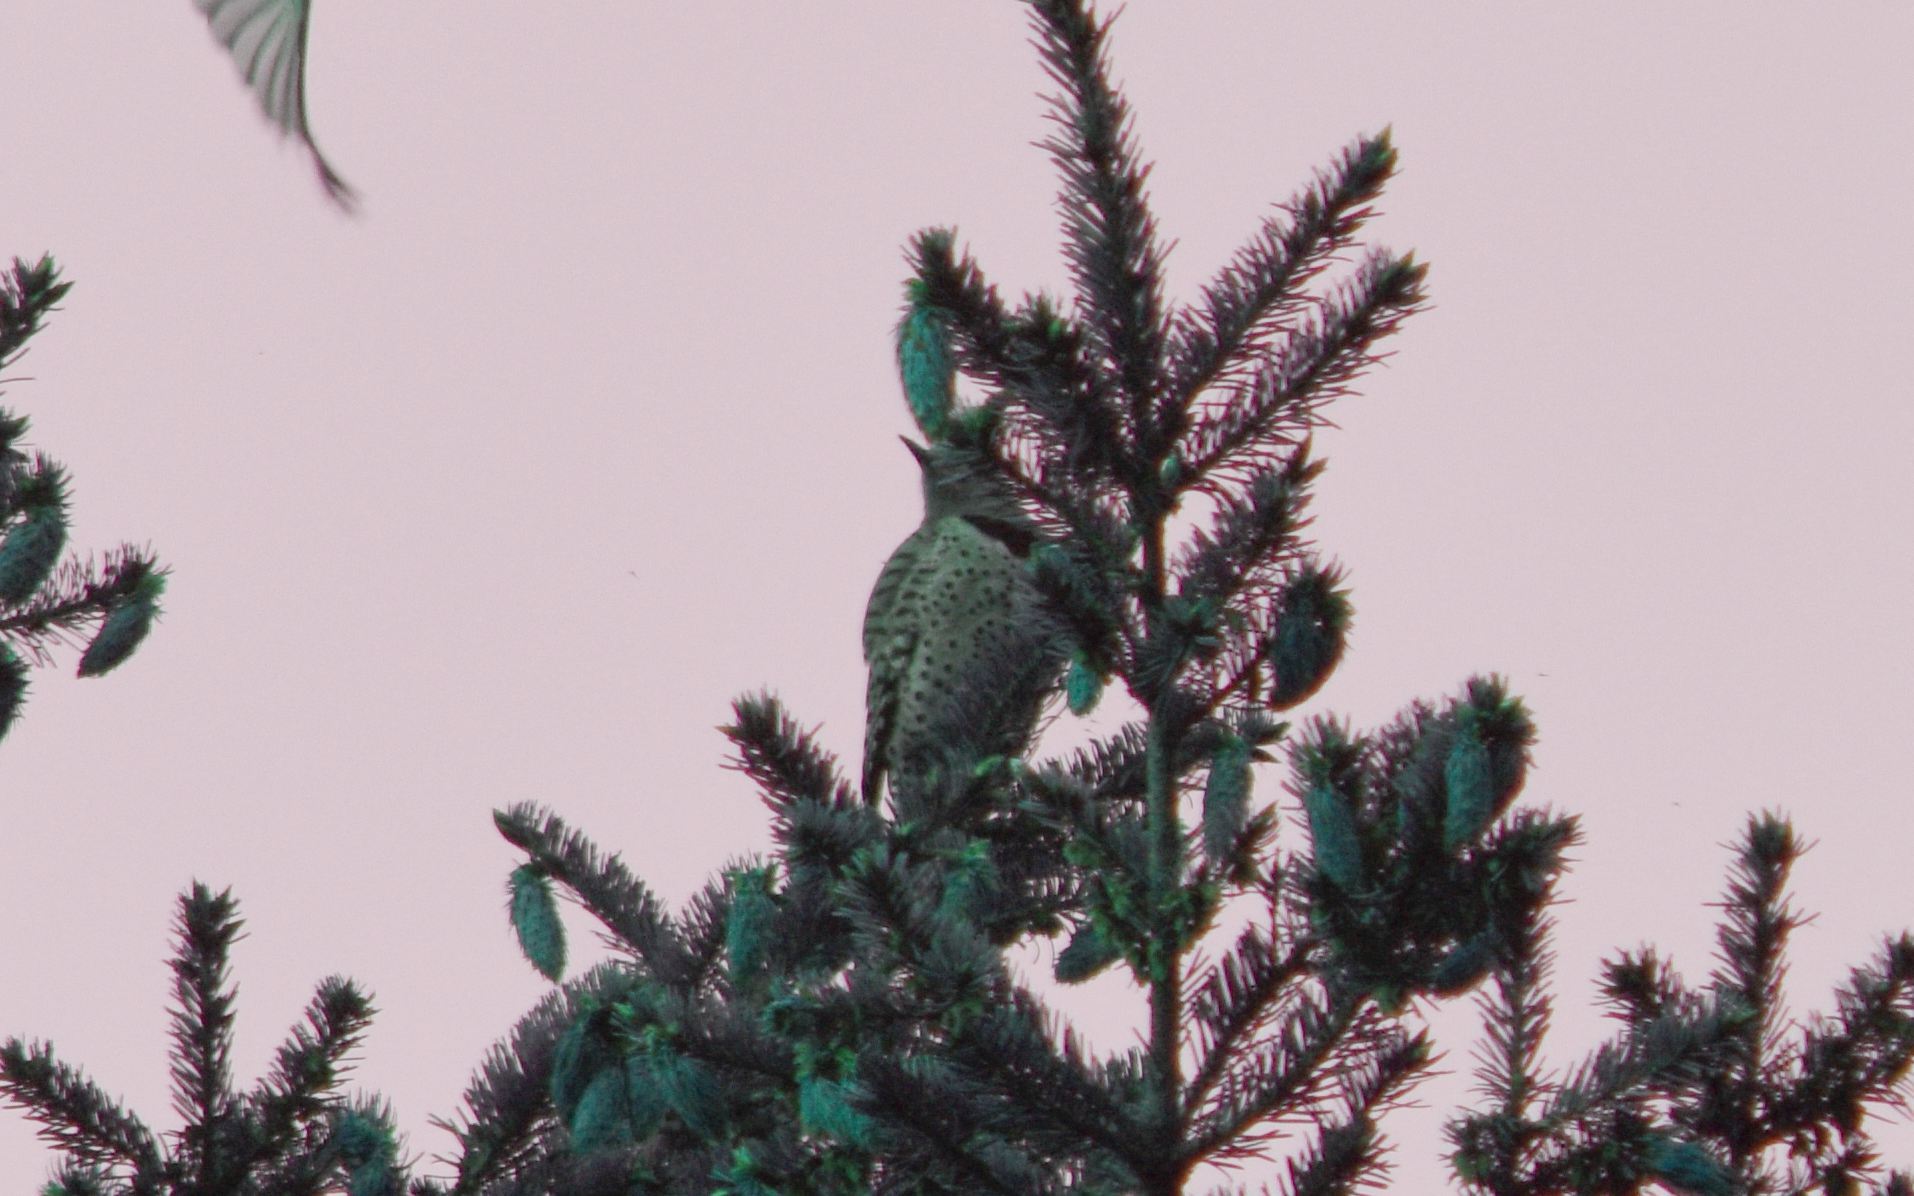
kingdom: Animalia
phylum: Chordata
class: Aves
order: Piciformes
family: Picidae
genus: Colaptes
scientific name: Colaptes auratus
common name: Northern flicker
